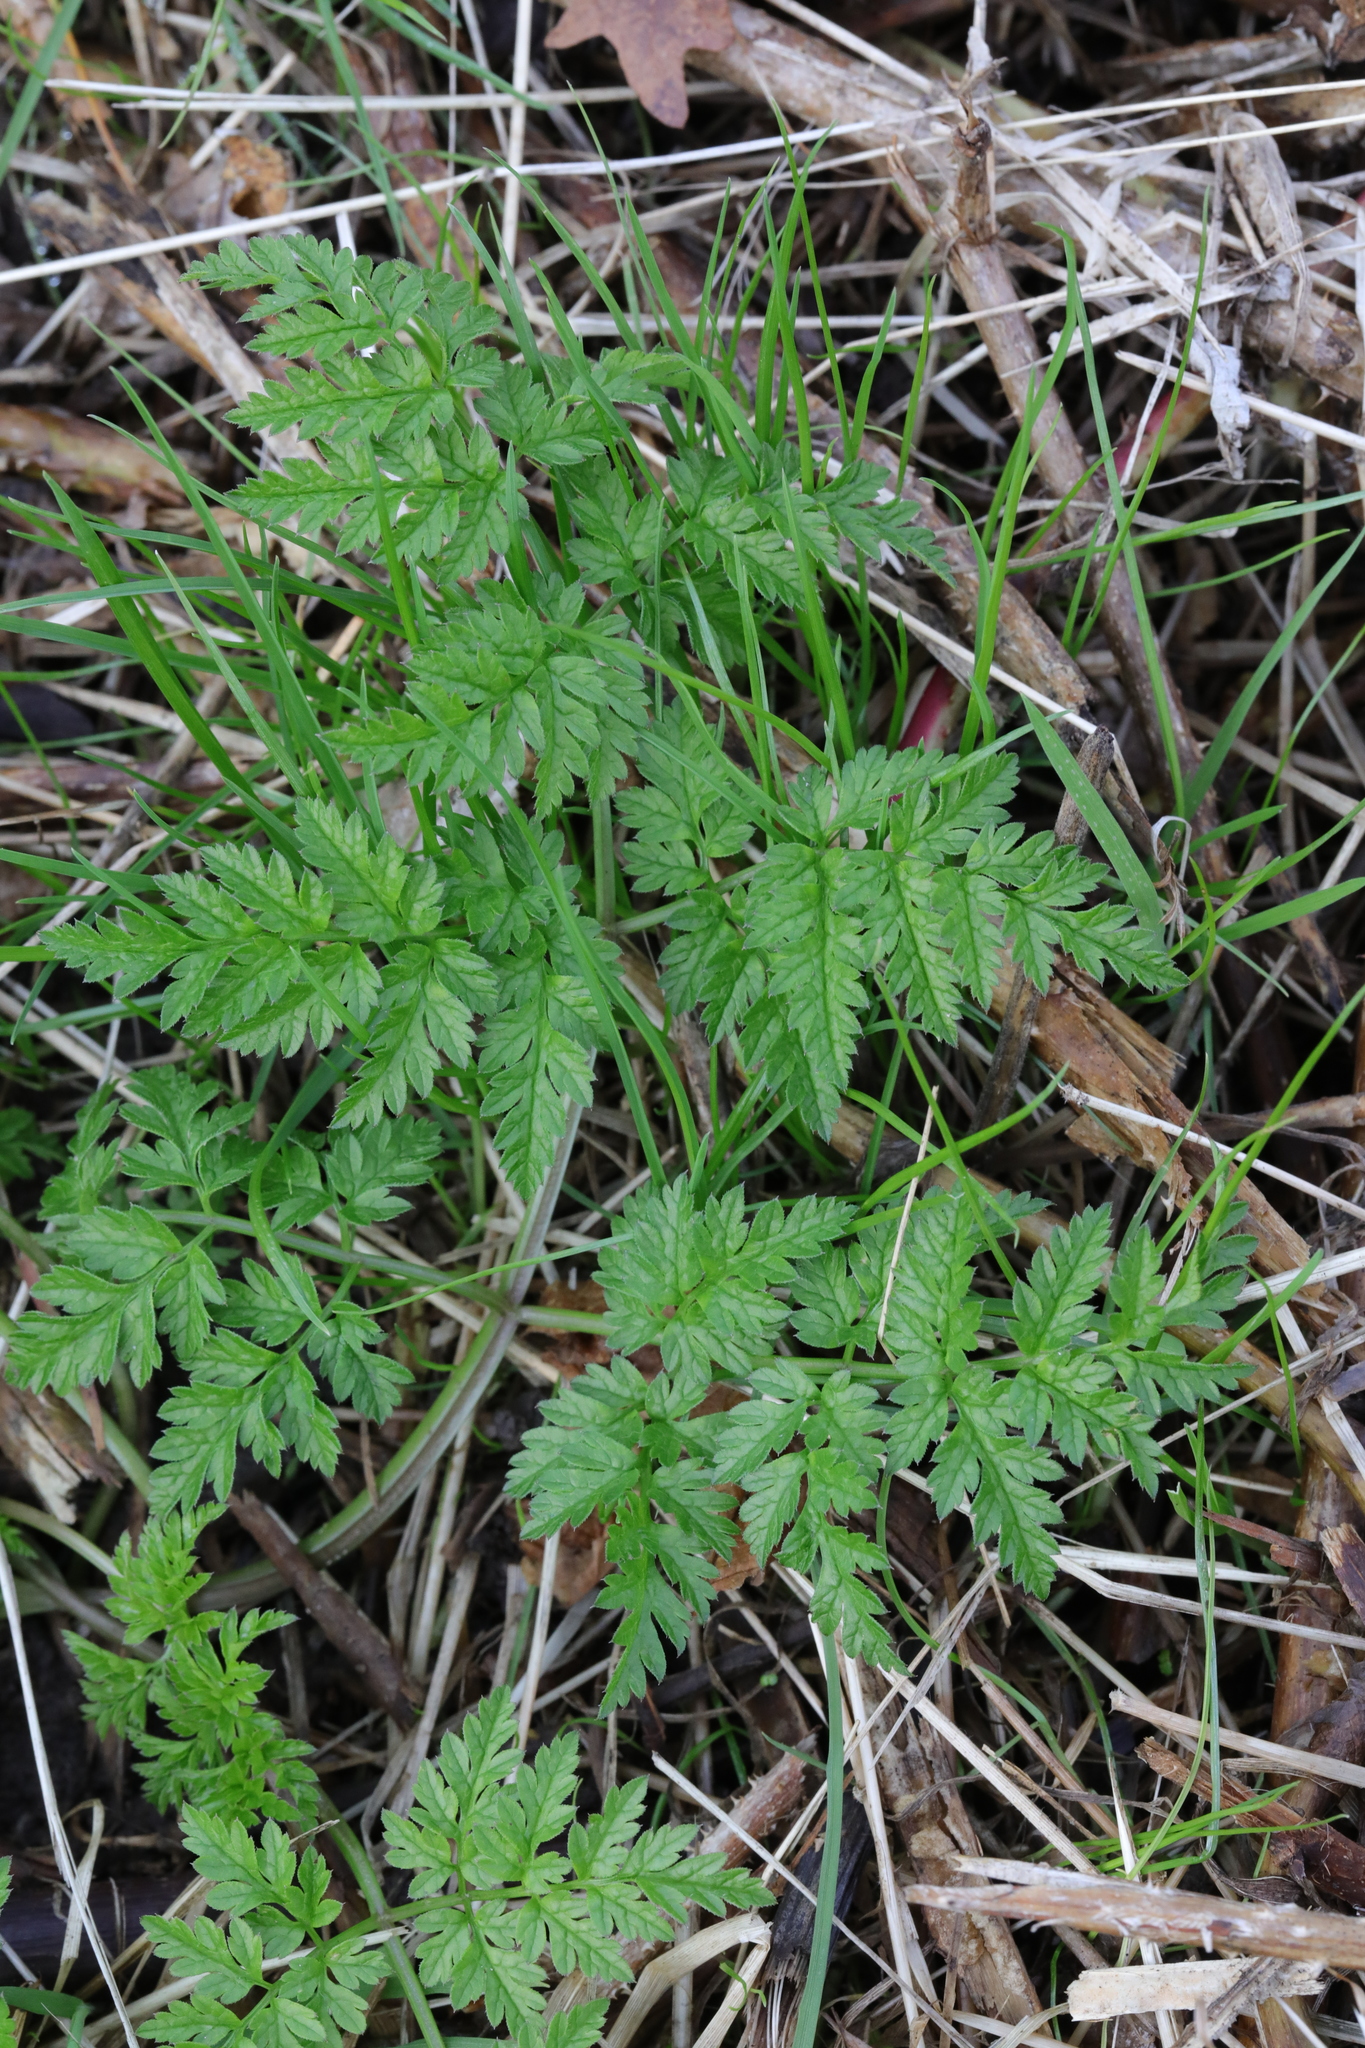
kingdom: Plantae
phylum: Tracheophyta
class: Magnoliopsida
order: Apiales
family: Apiaceae
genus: Anthriscus
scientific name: Anthriscus sylvestris
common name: Cow parsley
